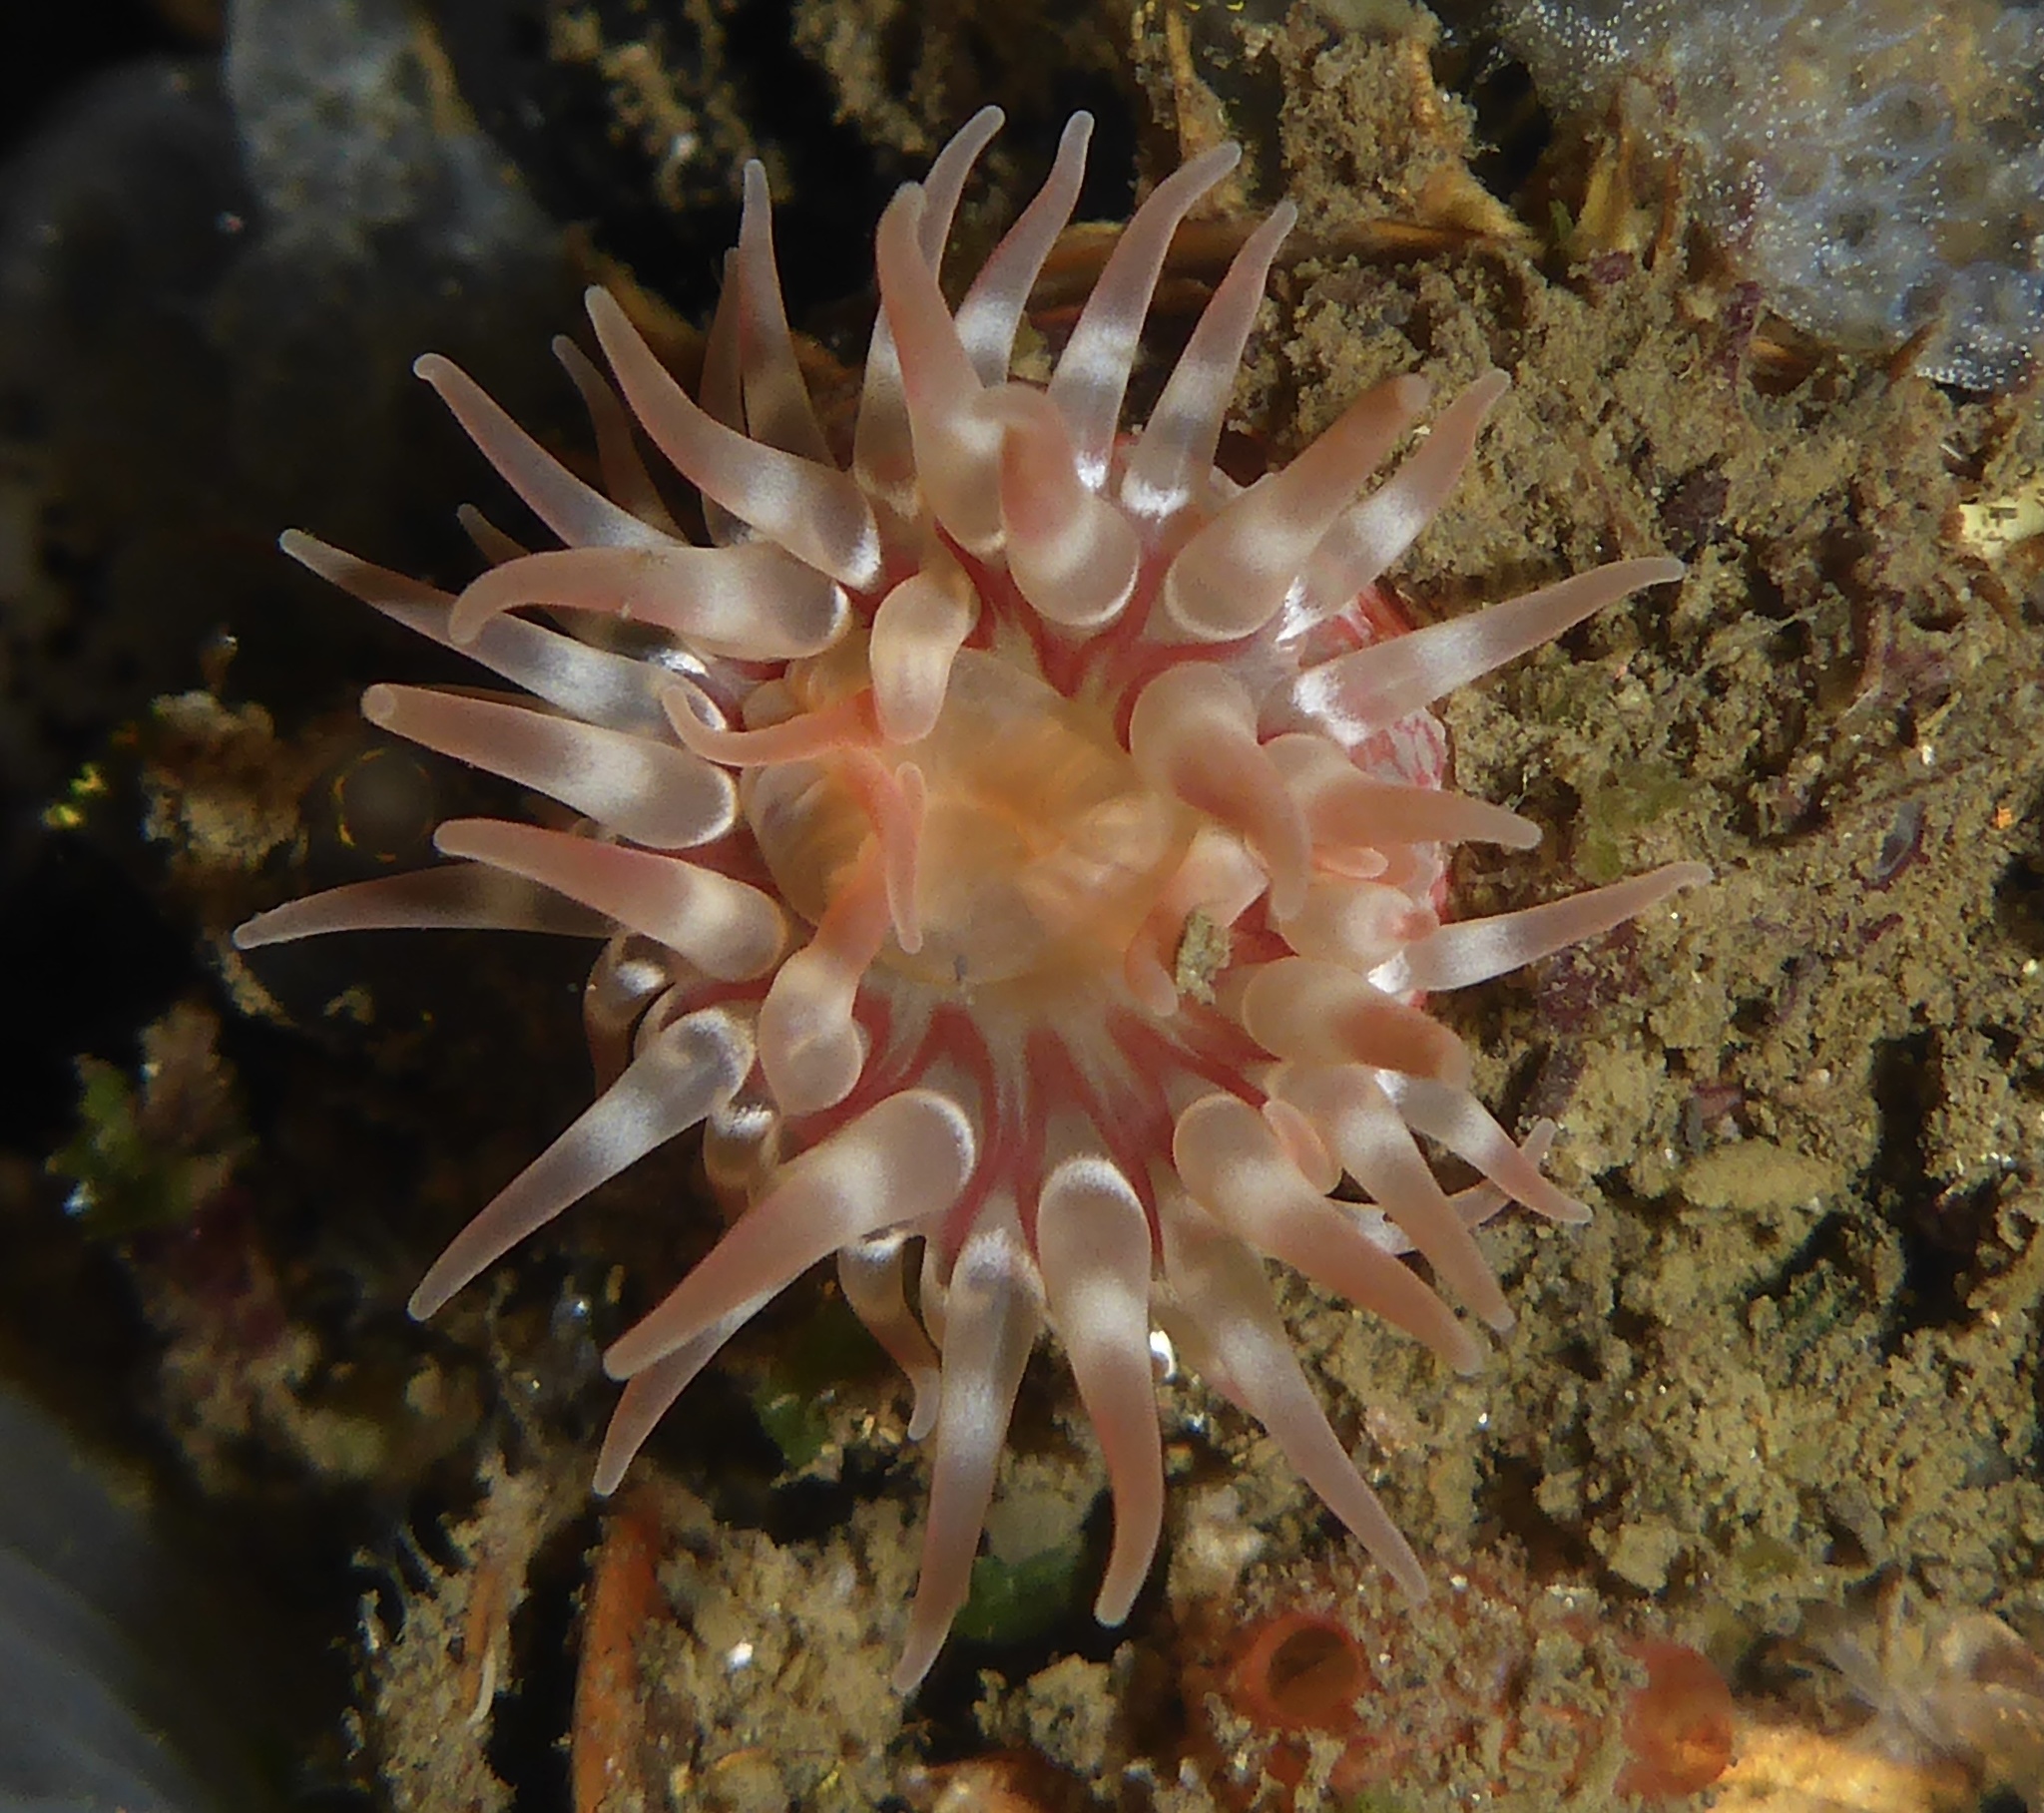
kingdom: Animalia
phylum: Cnidaria
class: Anthozoa
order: Actiniaria
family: Actiniidae
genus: Urticina
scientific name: Urticina grebelnyi
